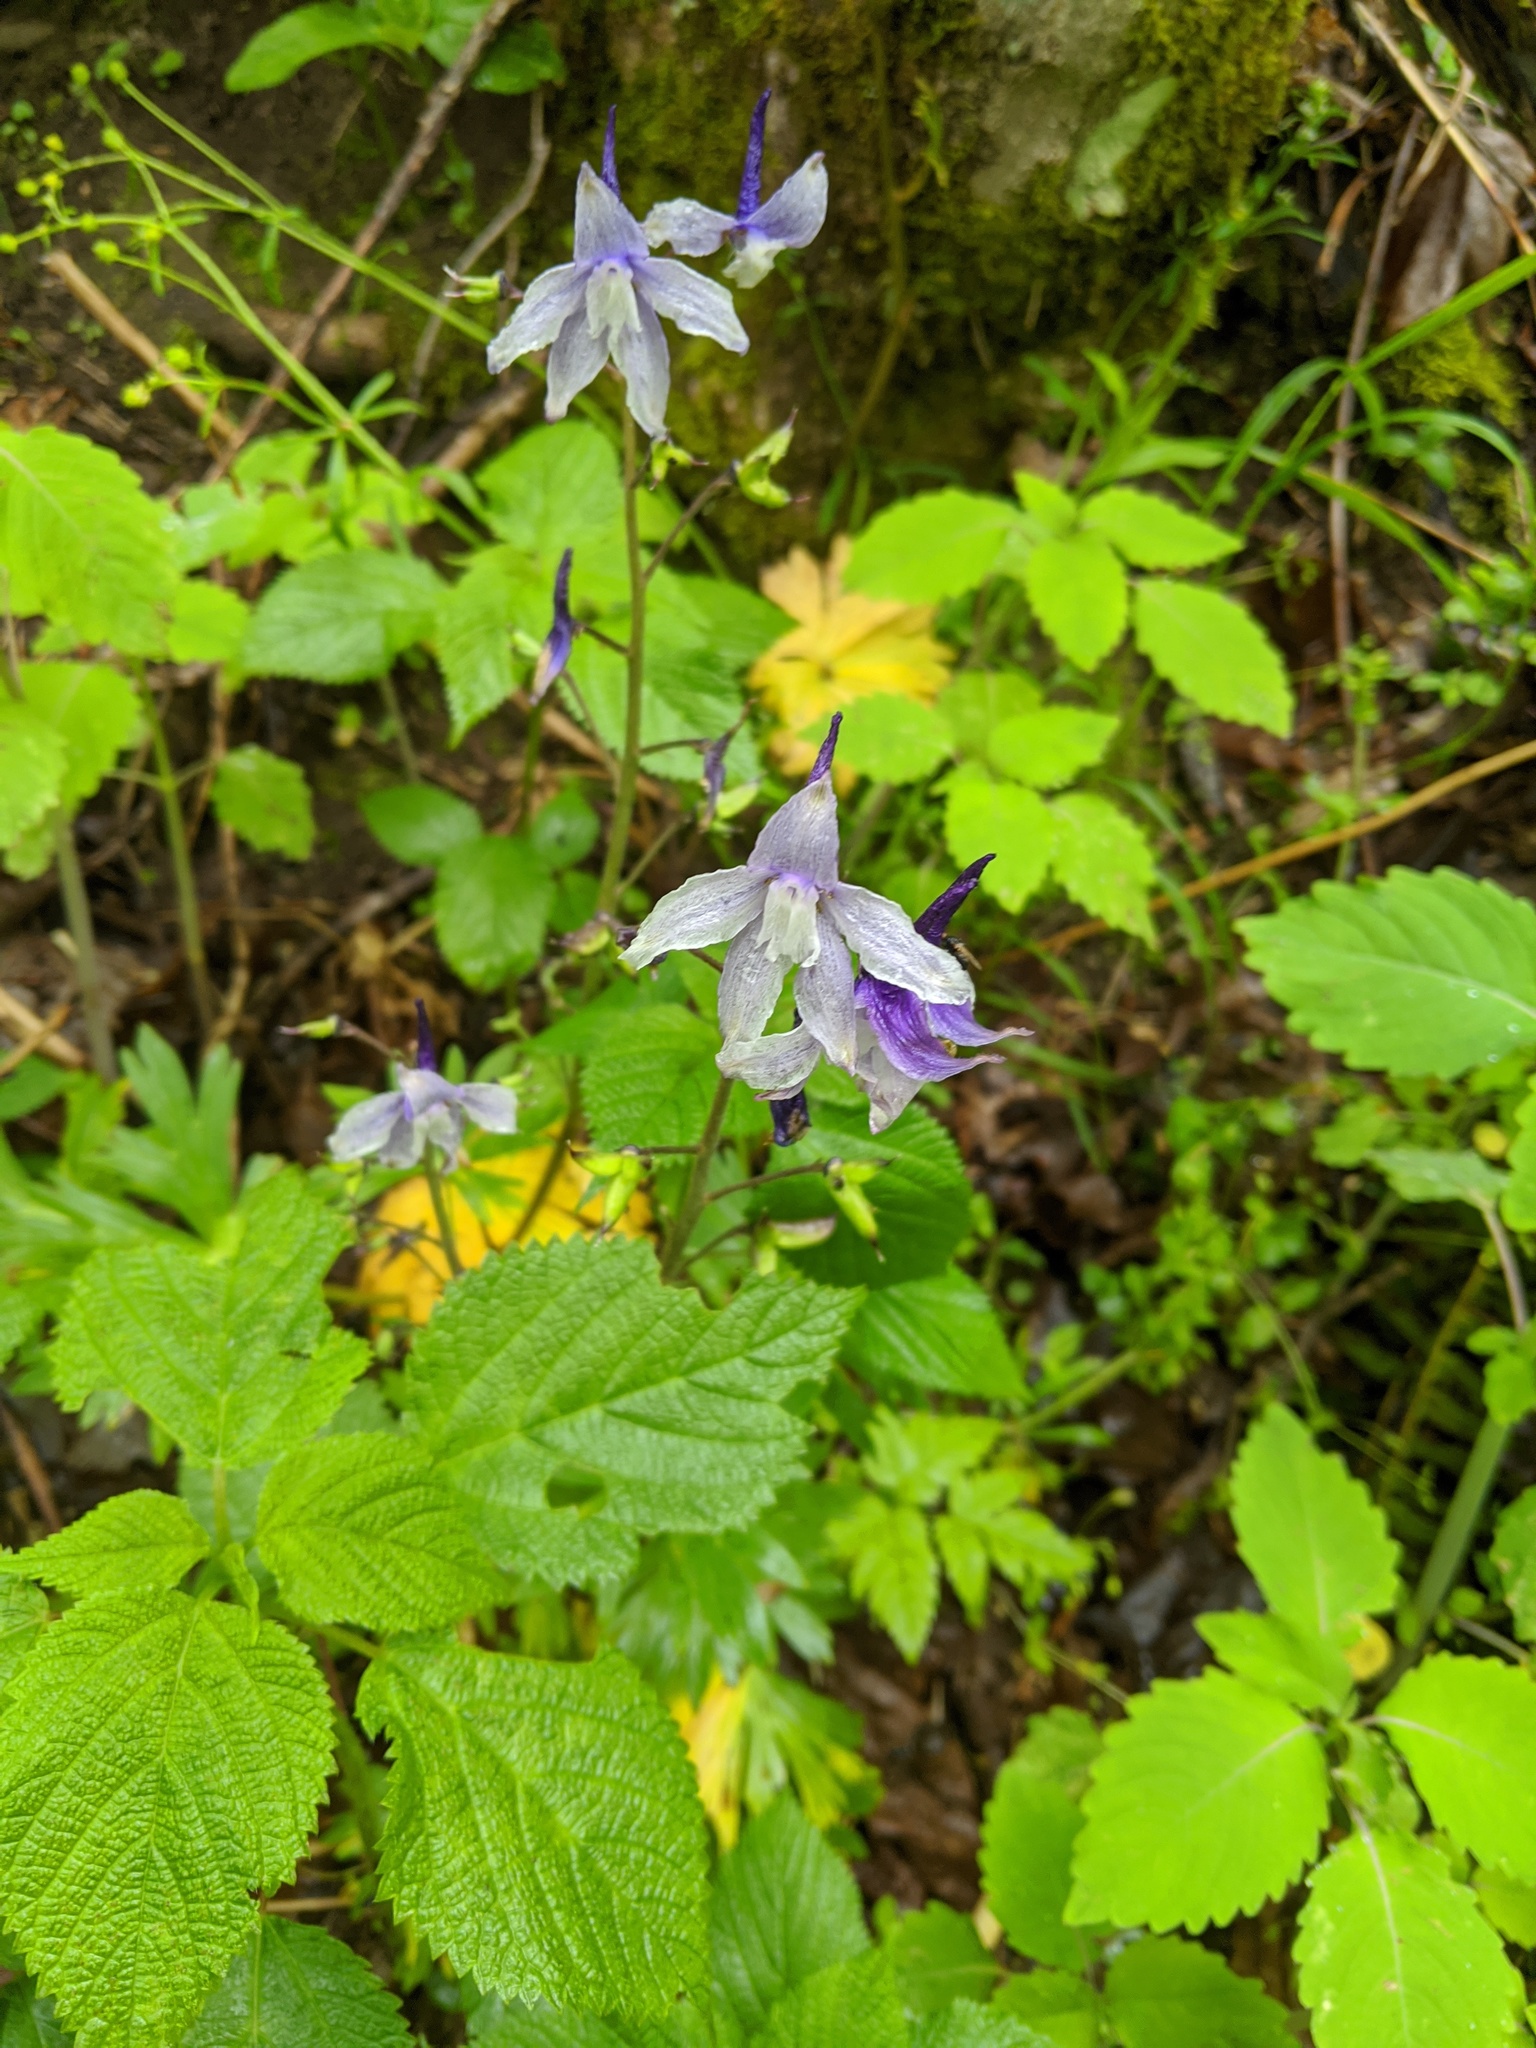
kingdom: Plantae
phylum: Tracheophyta
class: Magnoliopsida
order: Ranunculales
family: Ranunculaceae
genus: Delphinium
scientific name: Delphinium tricorne
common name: Dwarf larkspur
